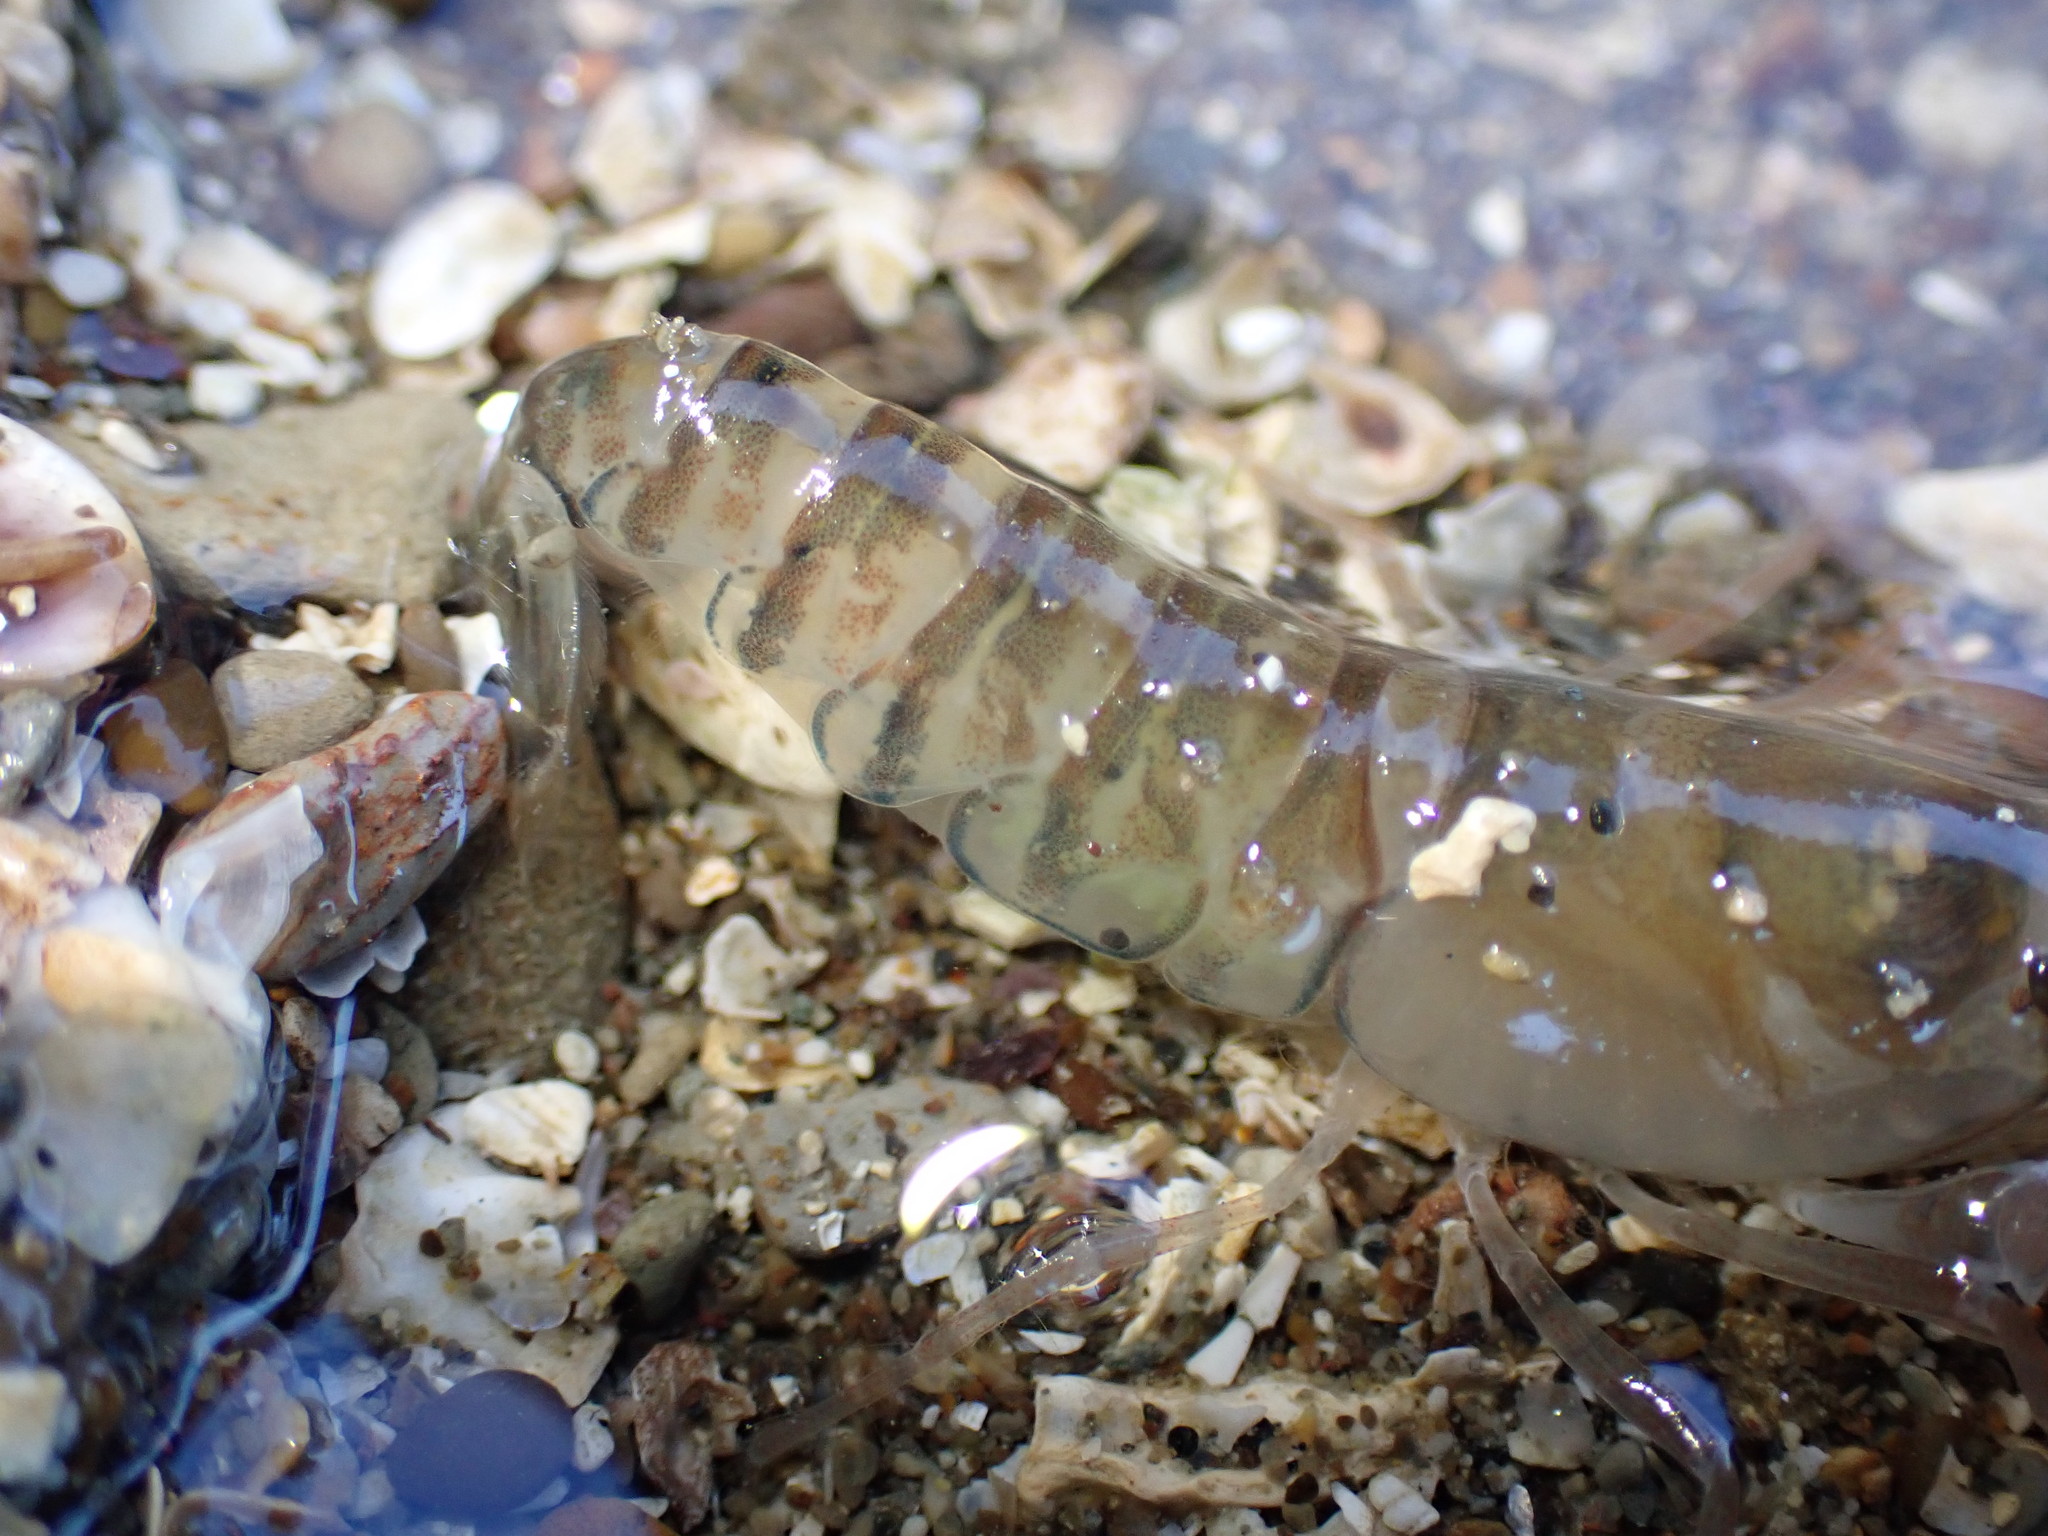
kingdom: Animalia
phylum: Arthropoda
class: Malacostraca
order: Decapoda
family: Alpheidae
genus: Alpheus
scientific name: Alpheus richardsoni
